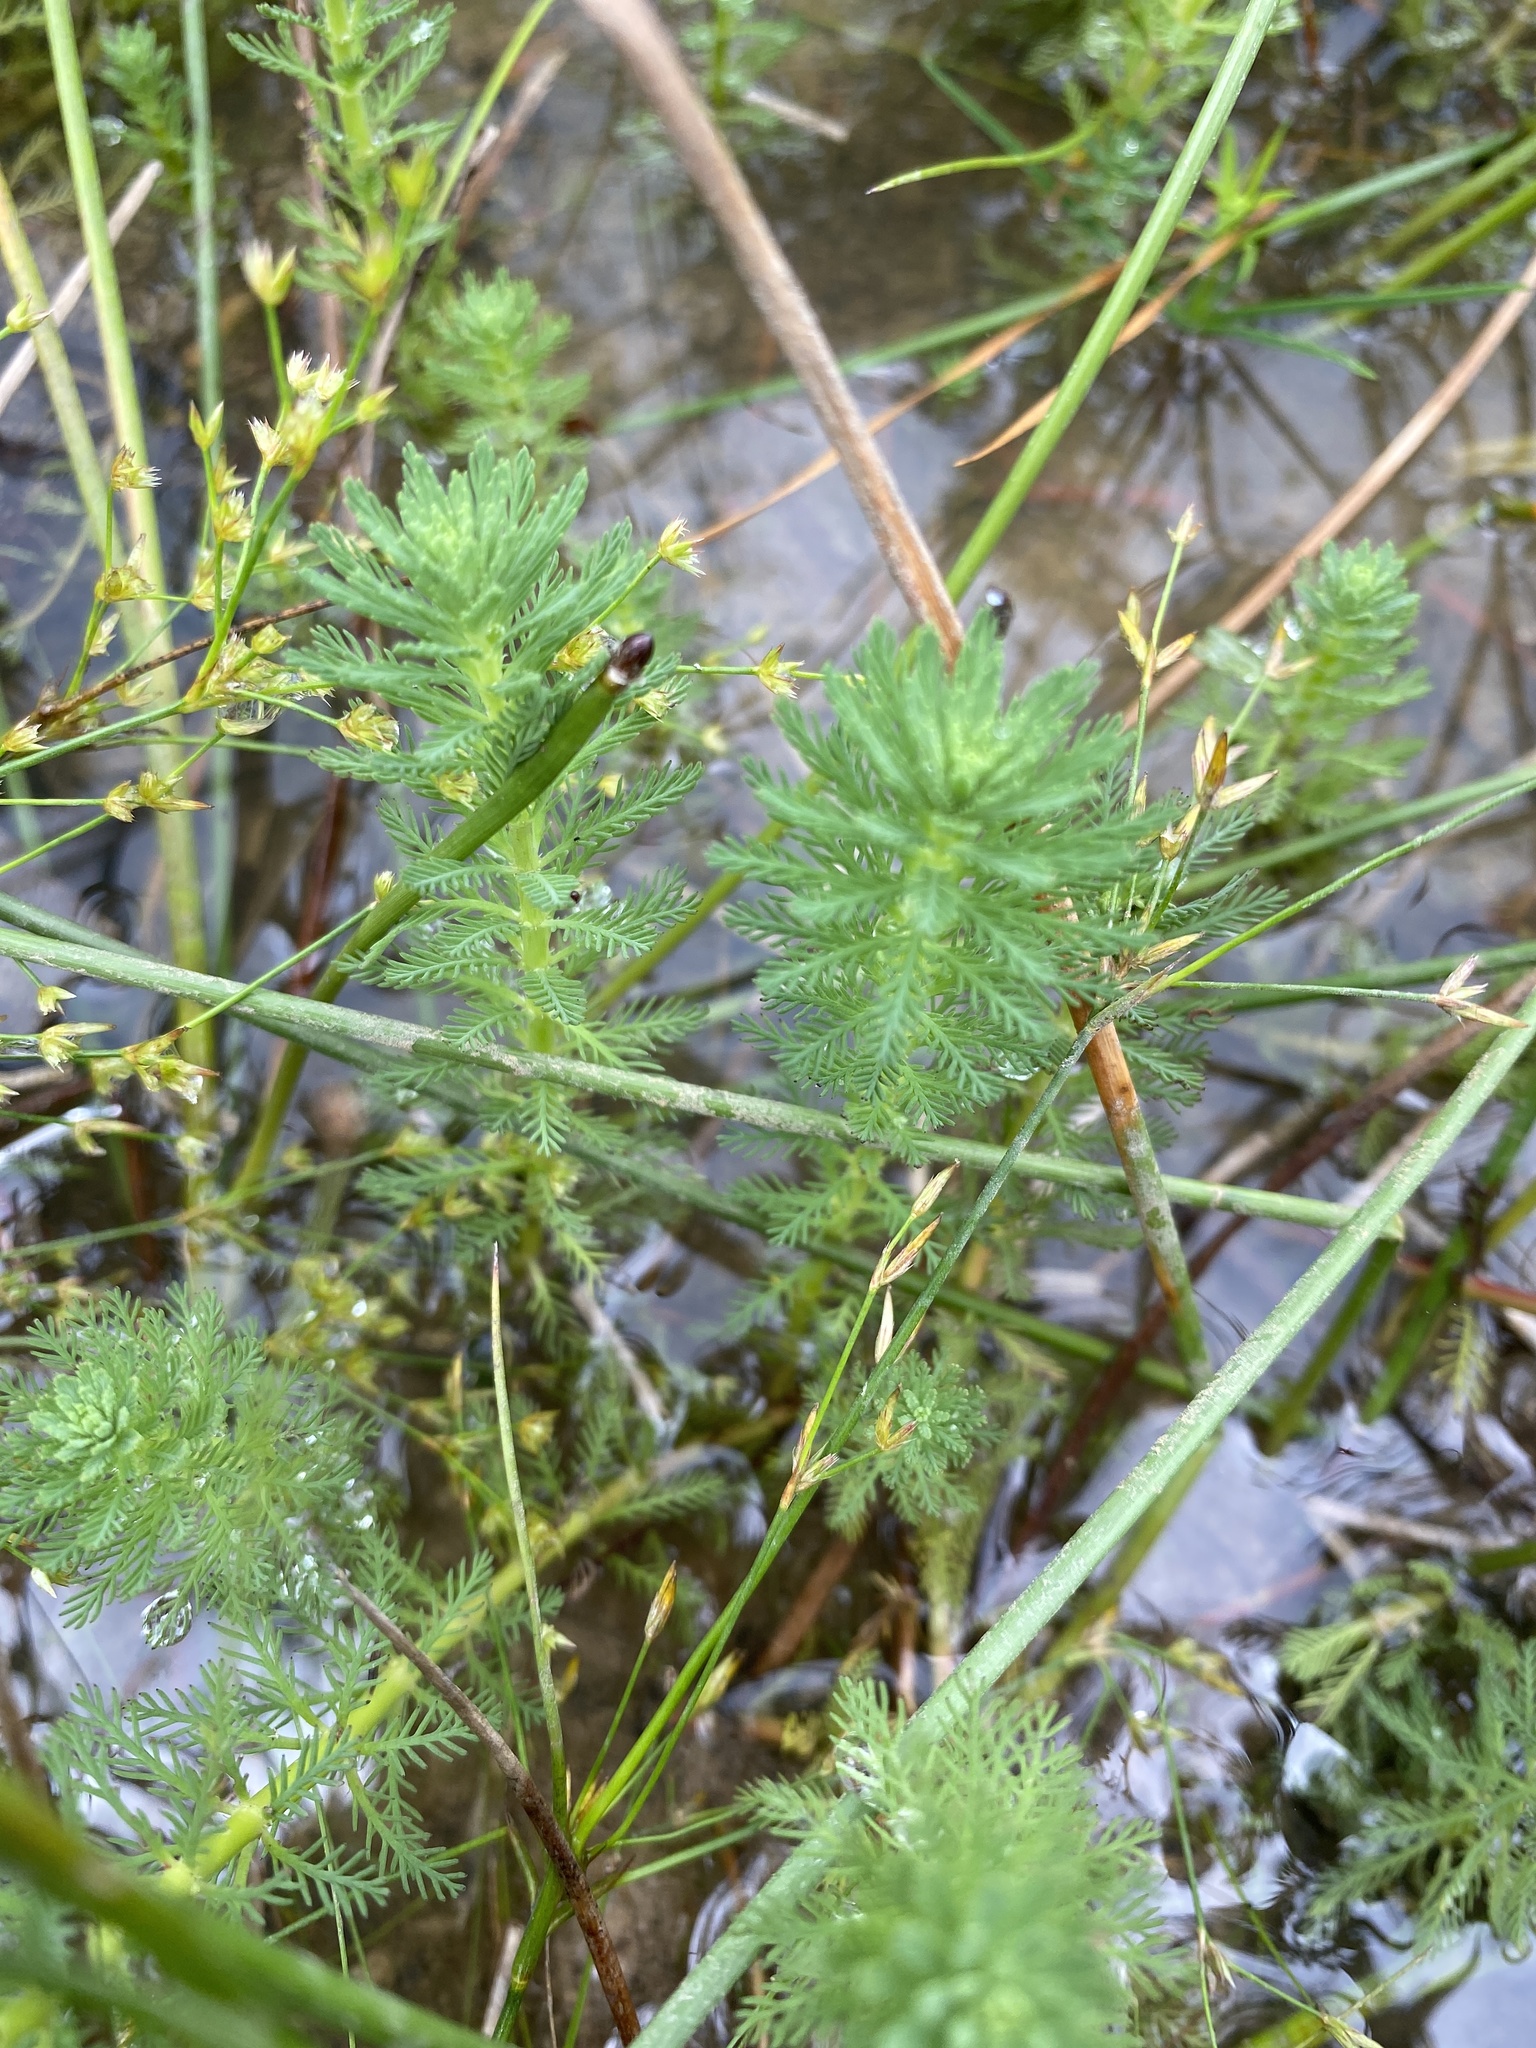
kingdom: Plantae
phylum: Tracheophyta
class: Magnoliopsida
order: Saxifragales
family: Haloragaceae
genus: Myriophyllum
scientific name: Myriophyllum aquaticum
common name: Parrot's feather
